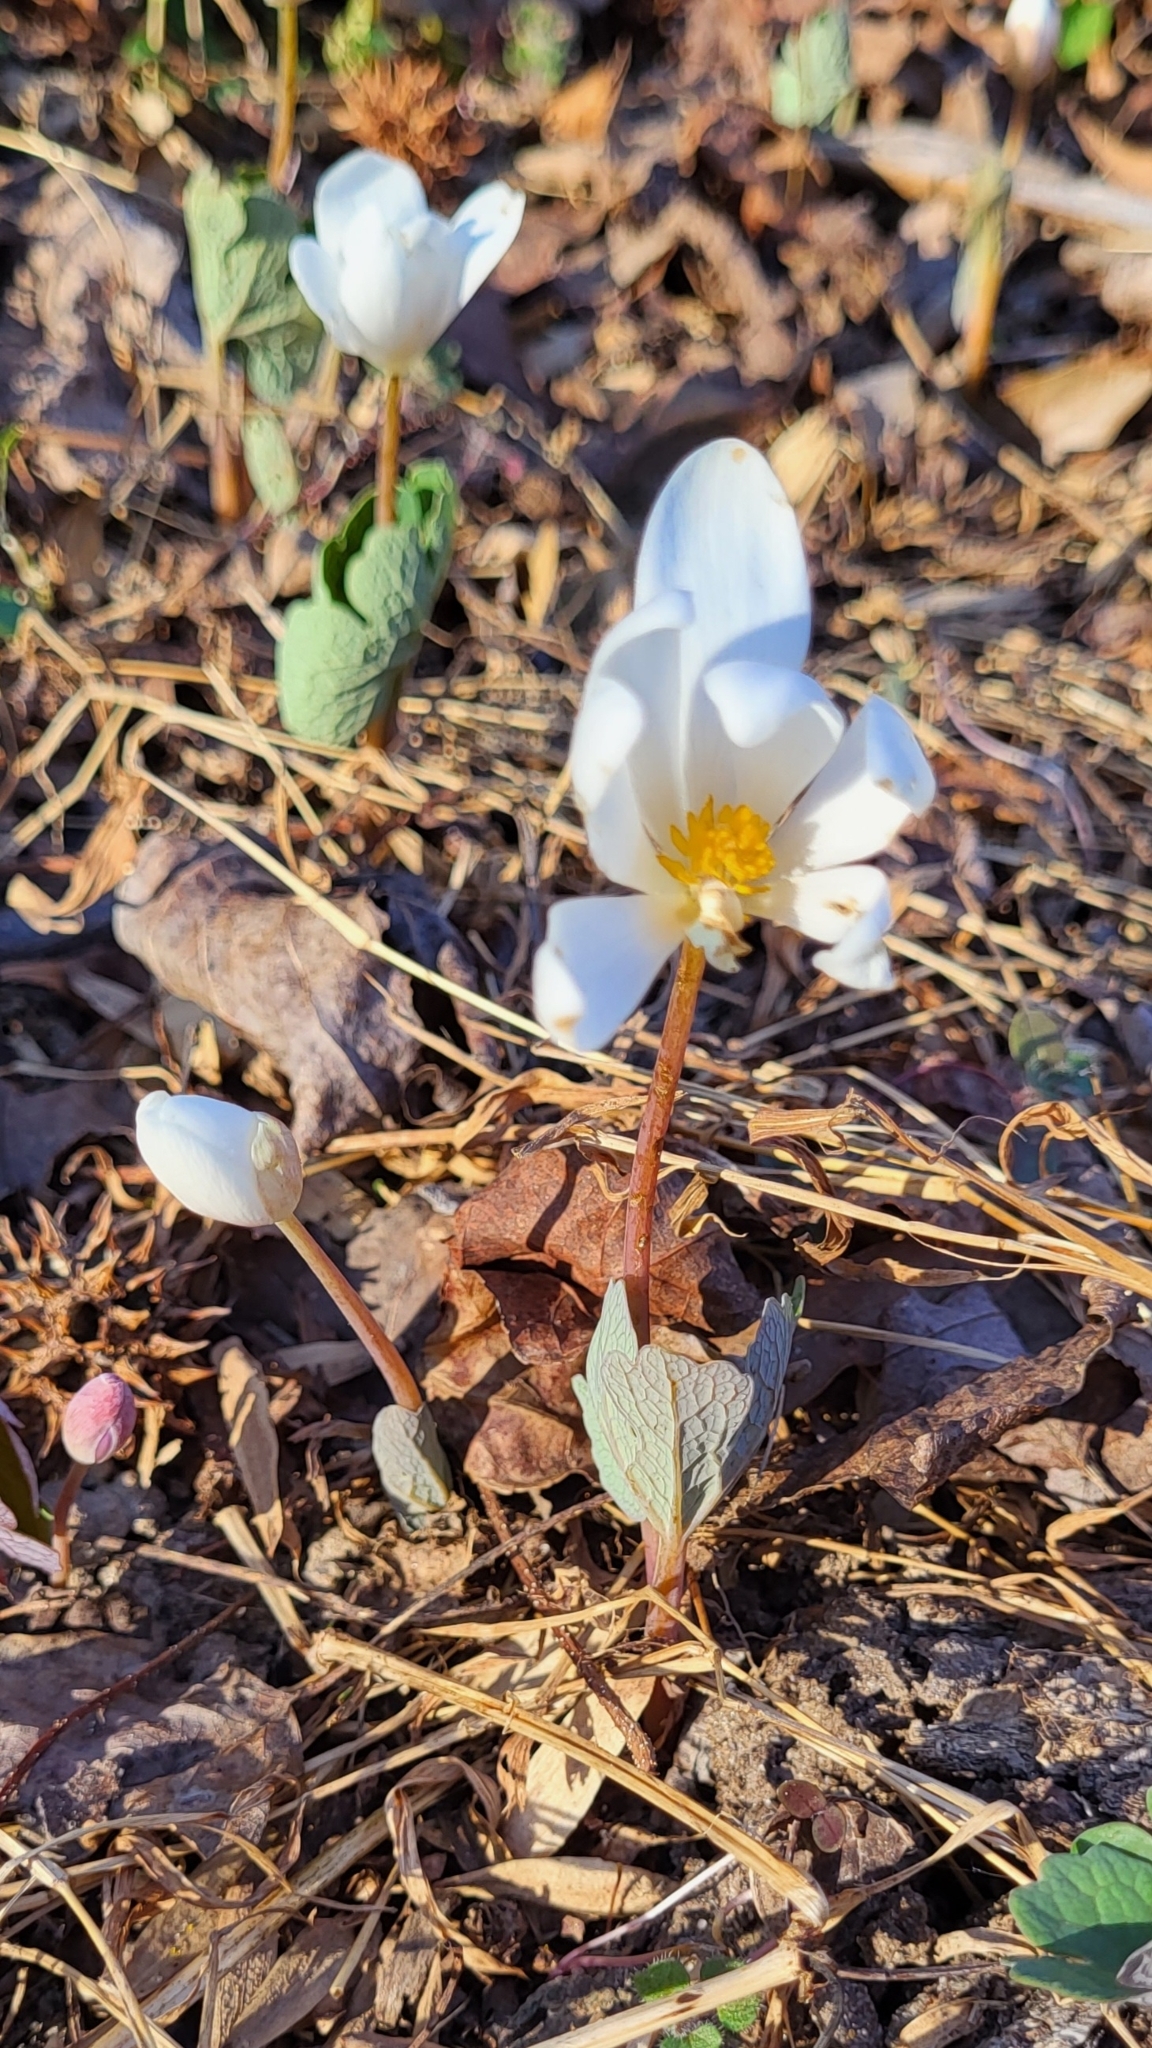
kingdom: Plantae
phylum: Tracheophyta
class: Magnoliopsida
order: Ranunculales
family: Papaveraceae
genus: Sanguinaria
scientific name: Sanguinaria canadensis
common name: Bloodroot
